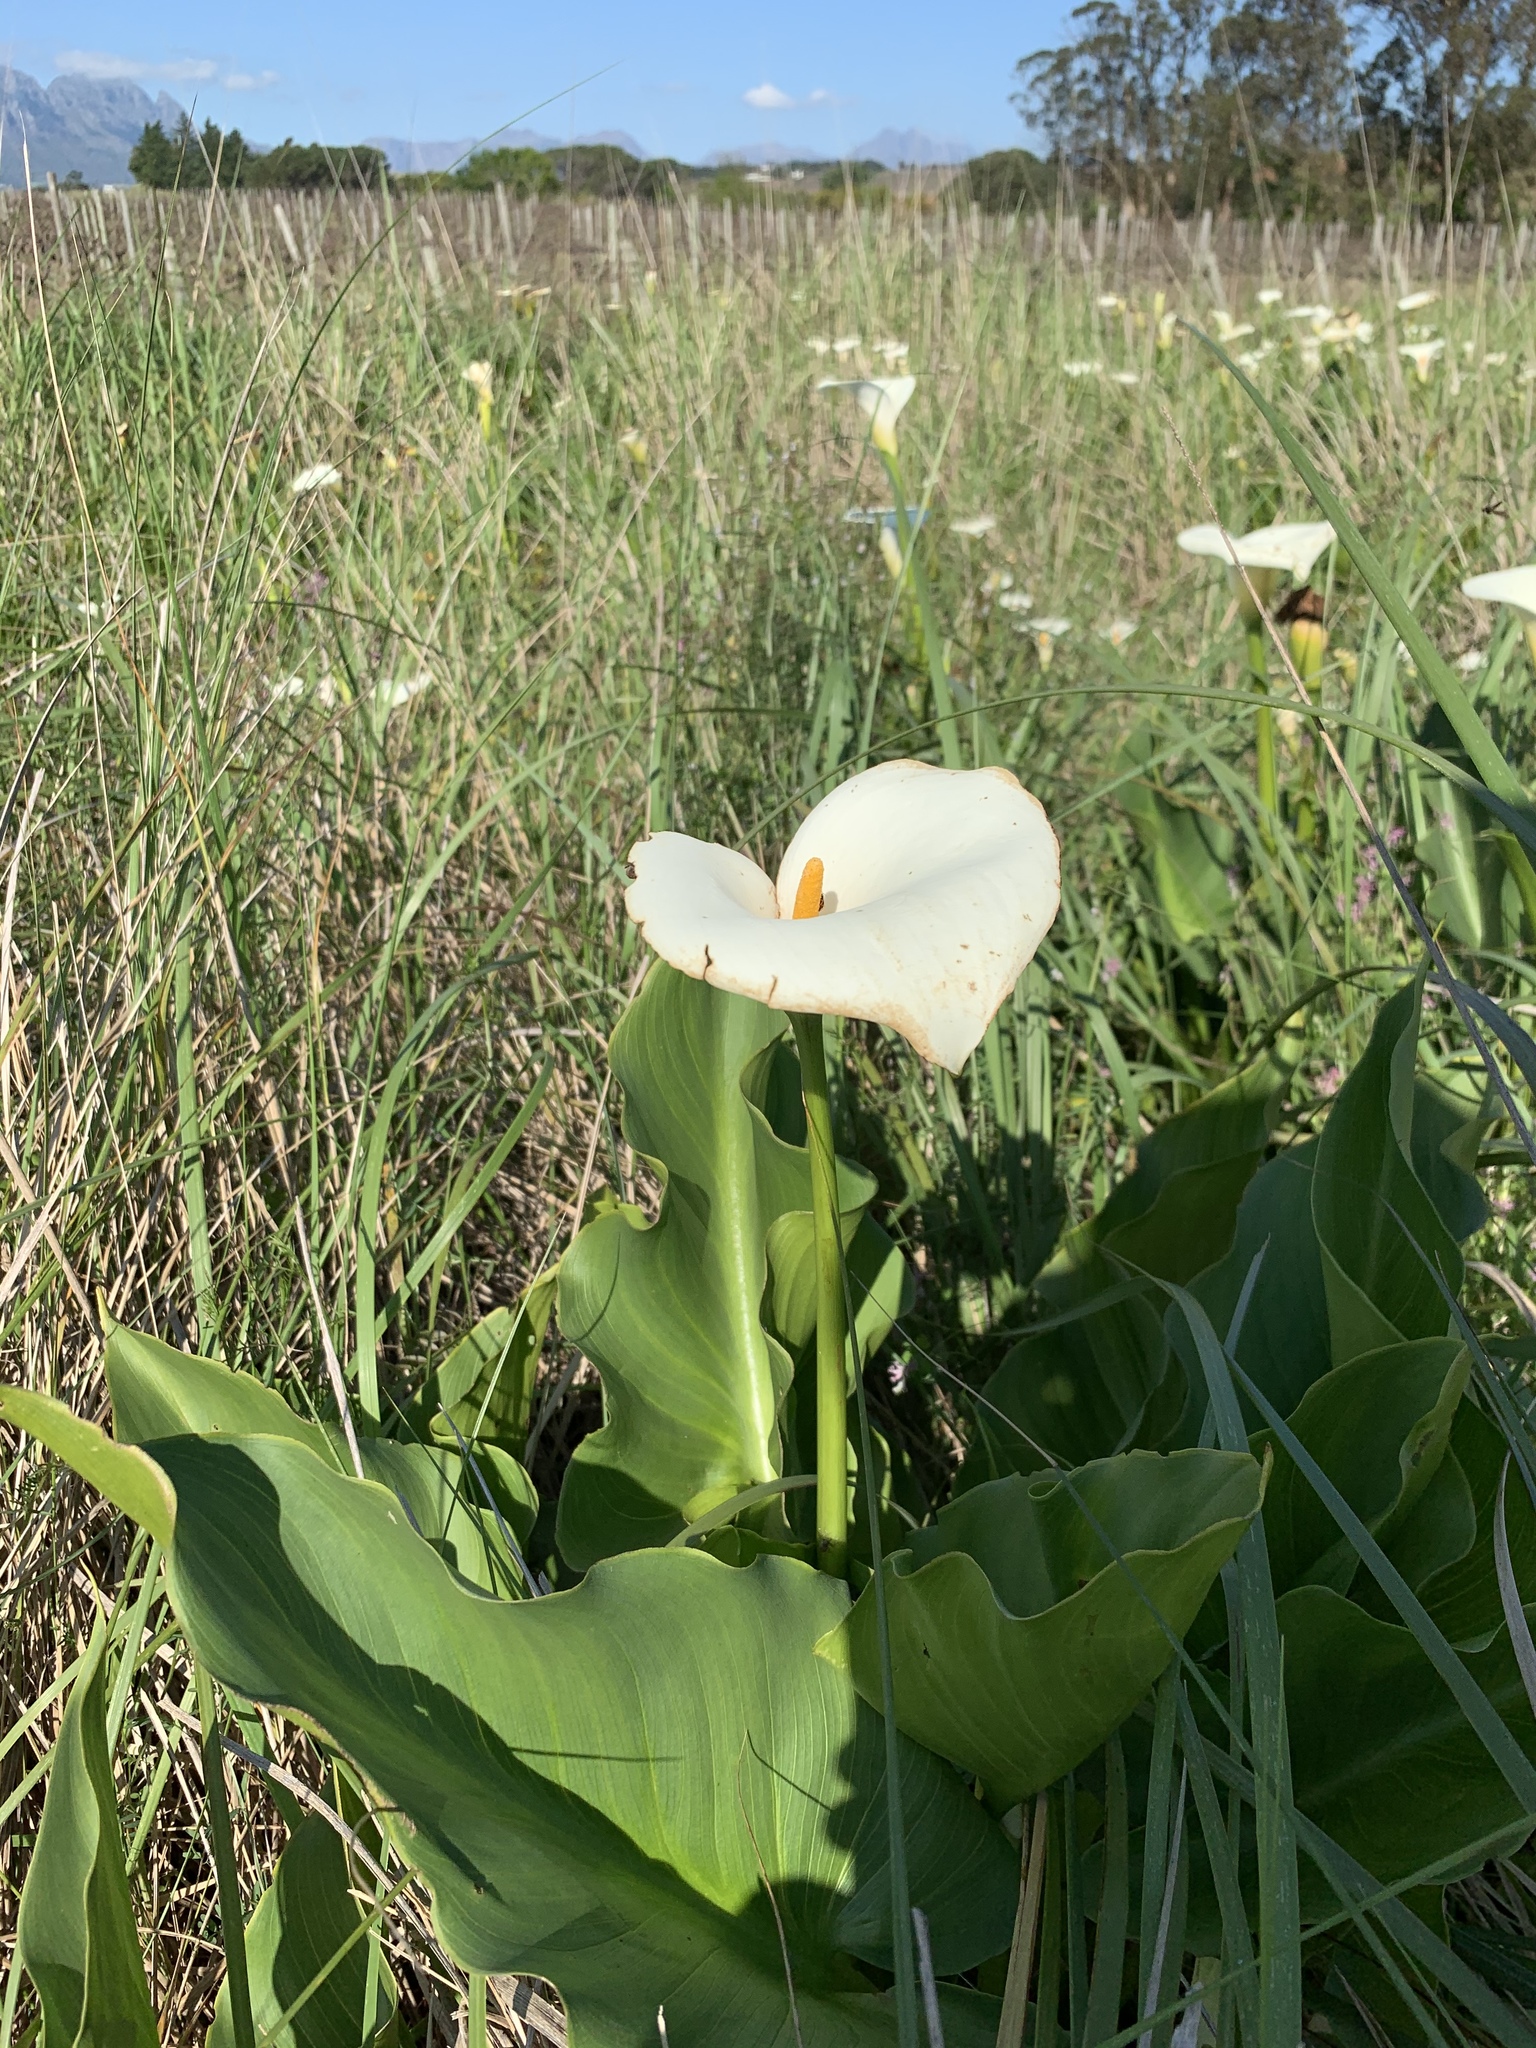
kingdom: Plantae
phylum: Tracheophyta
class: Liliopsida
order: Alismatales
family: Araceae
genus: Zantedeschia
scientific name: Zantedeschia aethiopica
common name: Altar-lily
